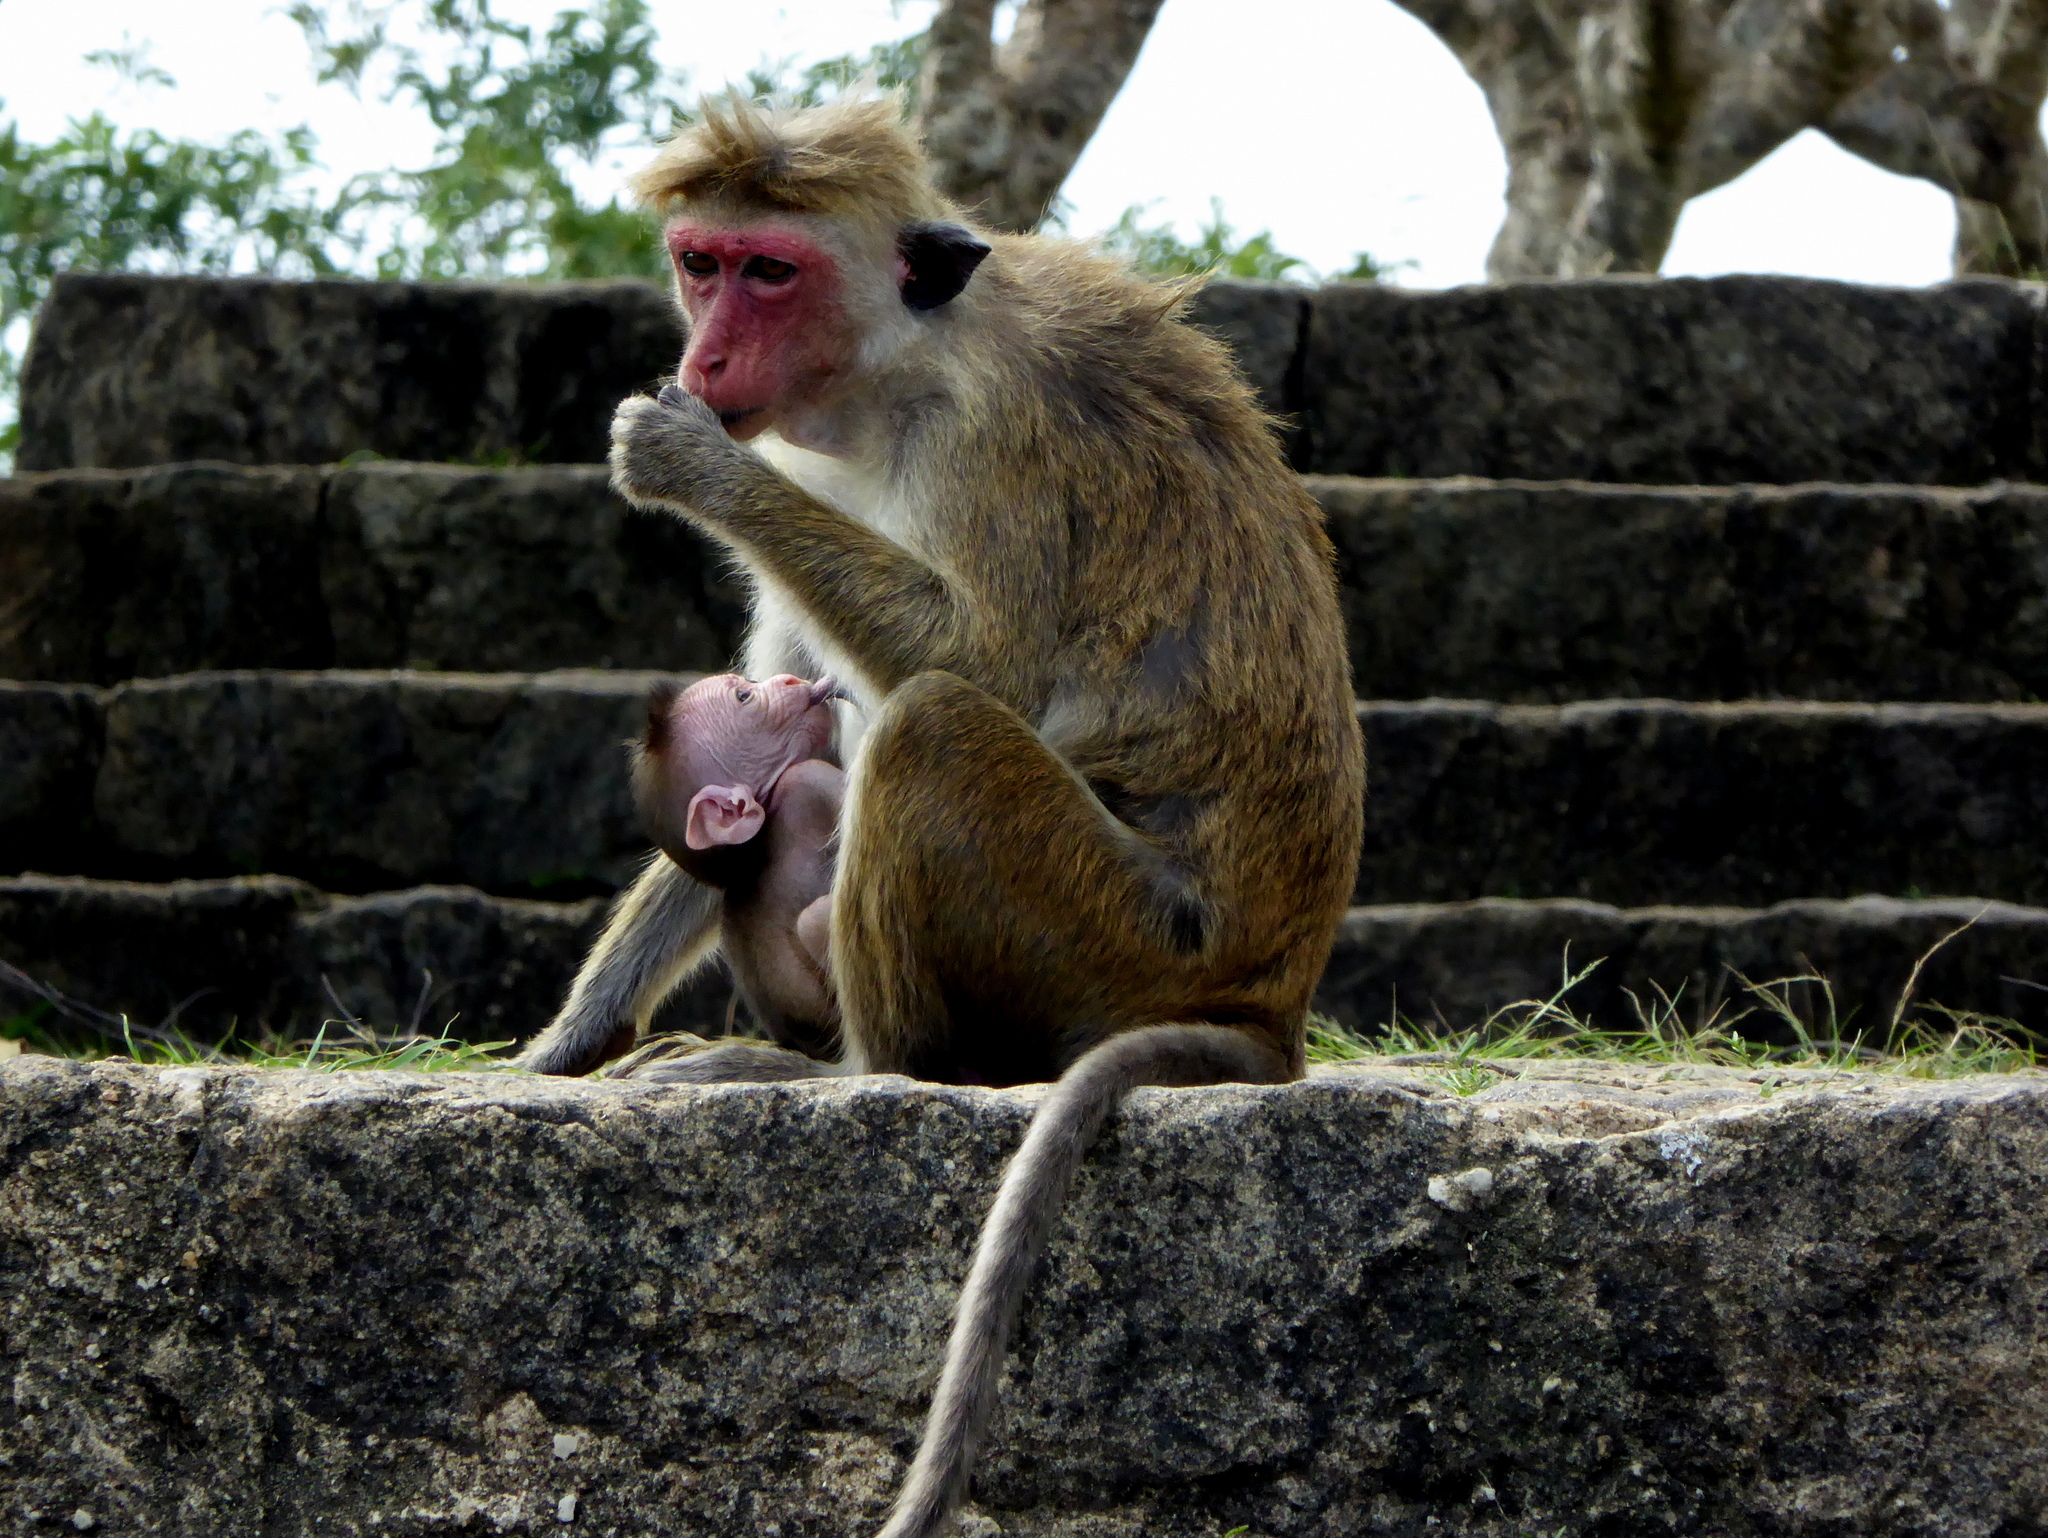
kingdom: Animalia
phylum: Chordata
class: Mammalia
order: Primates
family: Cercopithecidae
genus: Macaca
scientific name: Macaca sinica
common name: Toque macaque
